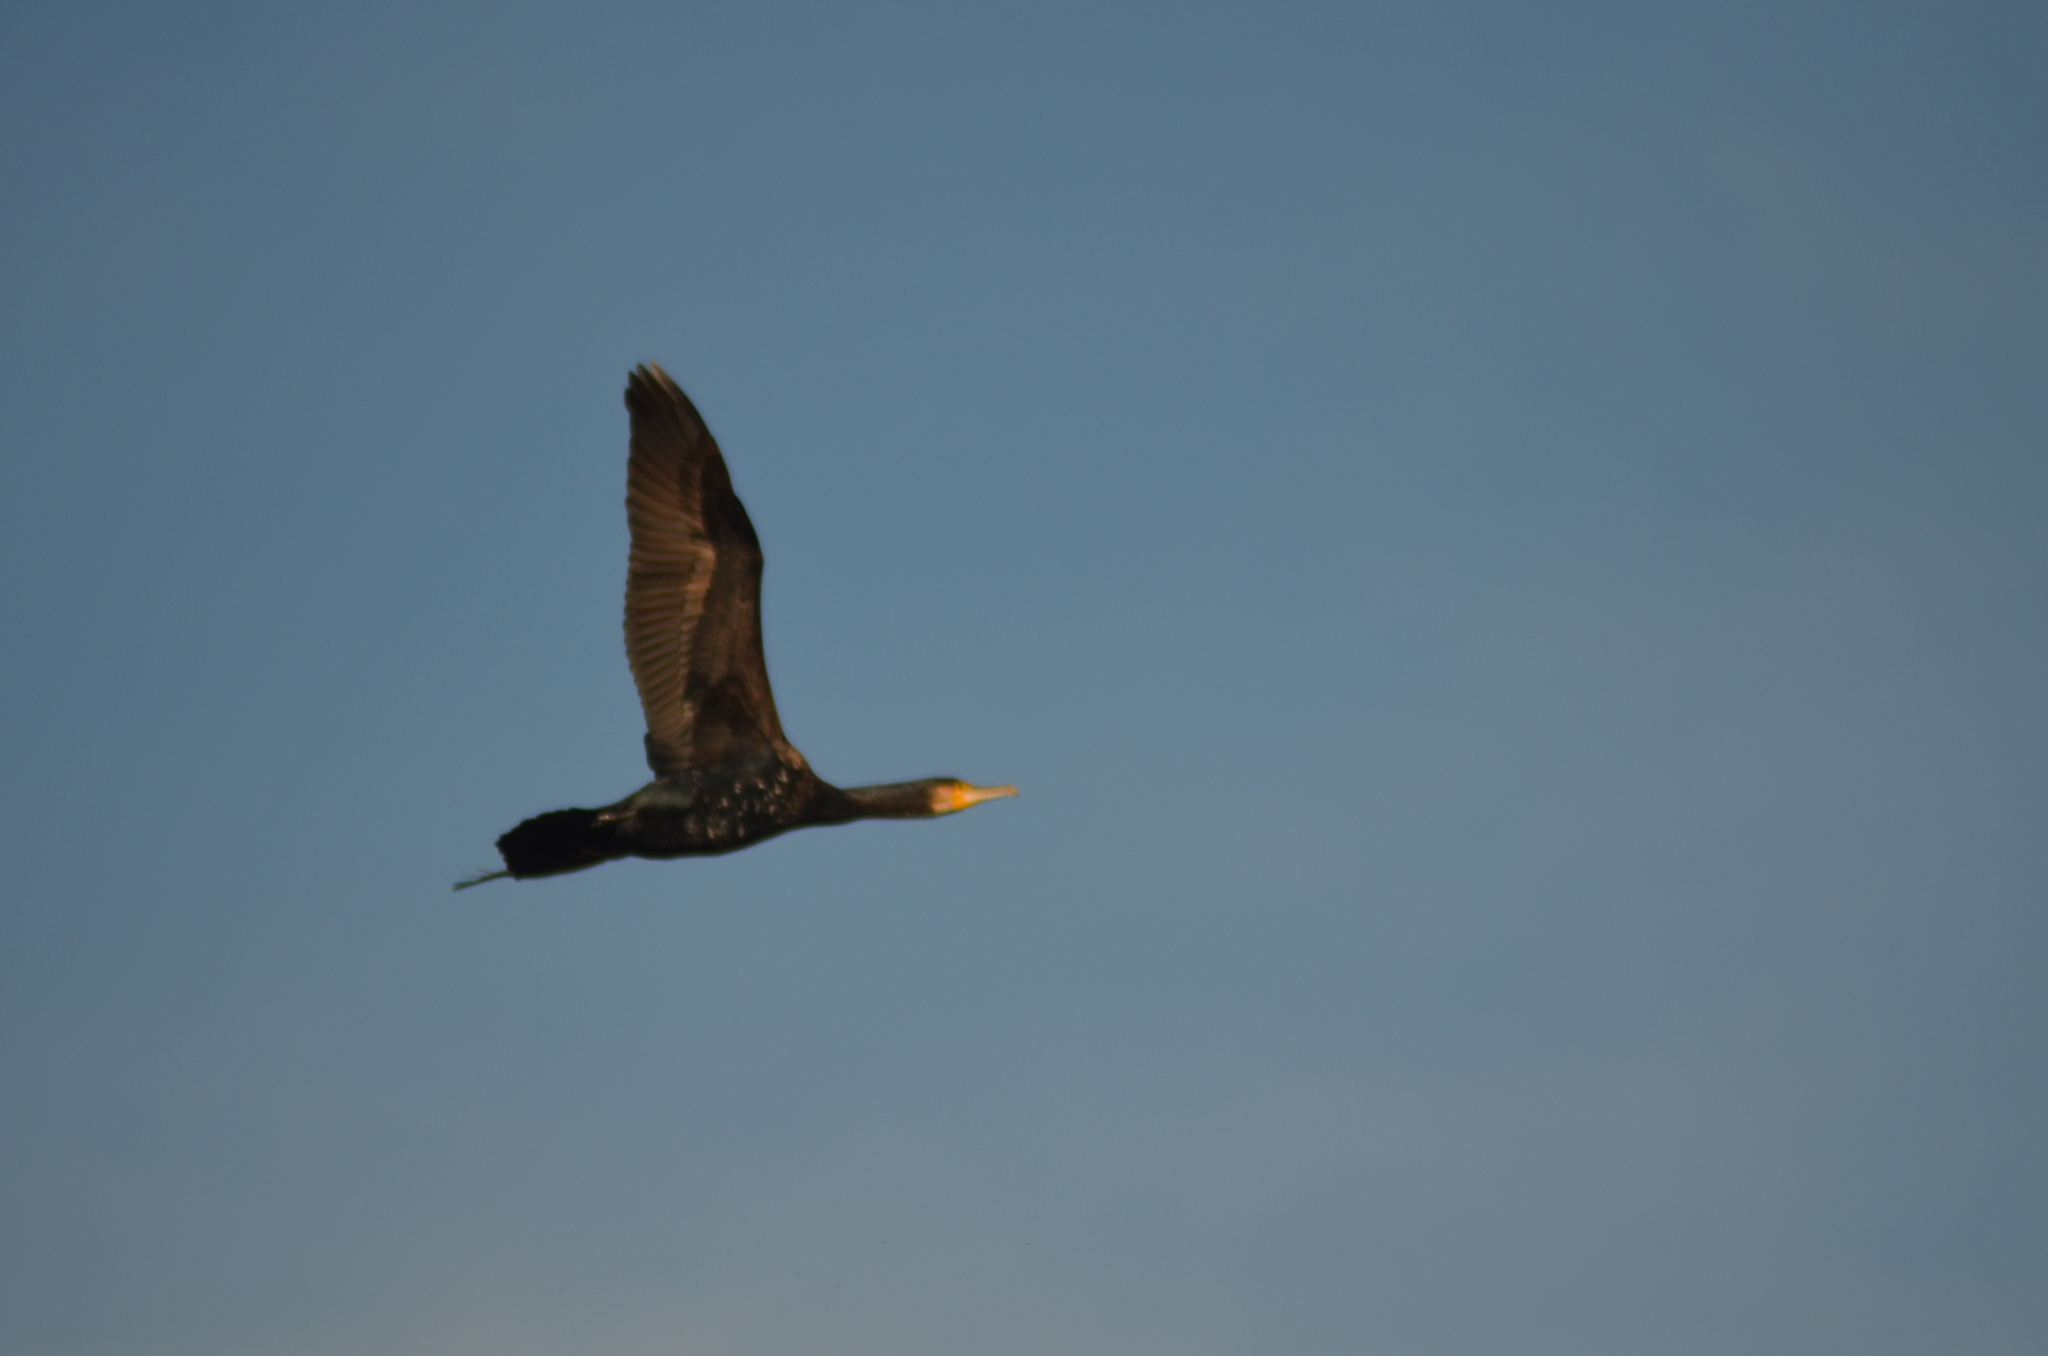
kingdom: Animalia
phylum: Chordata
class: Aves
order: Suliformes
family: Phalacrocoracidae
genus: Phalacrocorax
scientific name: Phalacrocorax carbo
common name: Great cormorant
